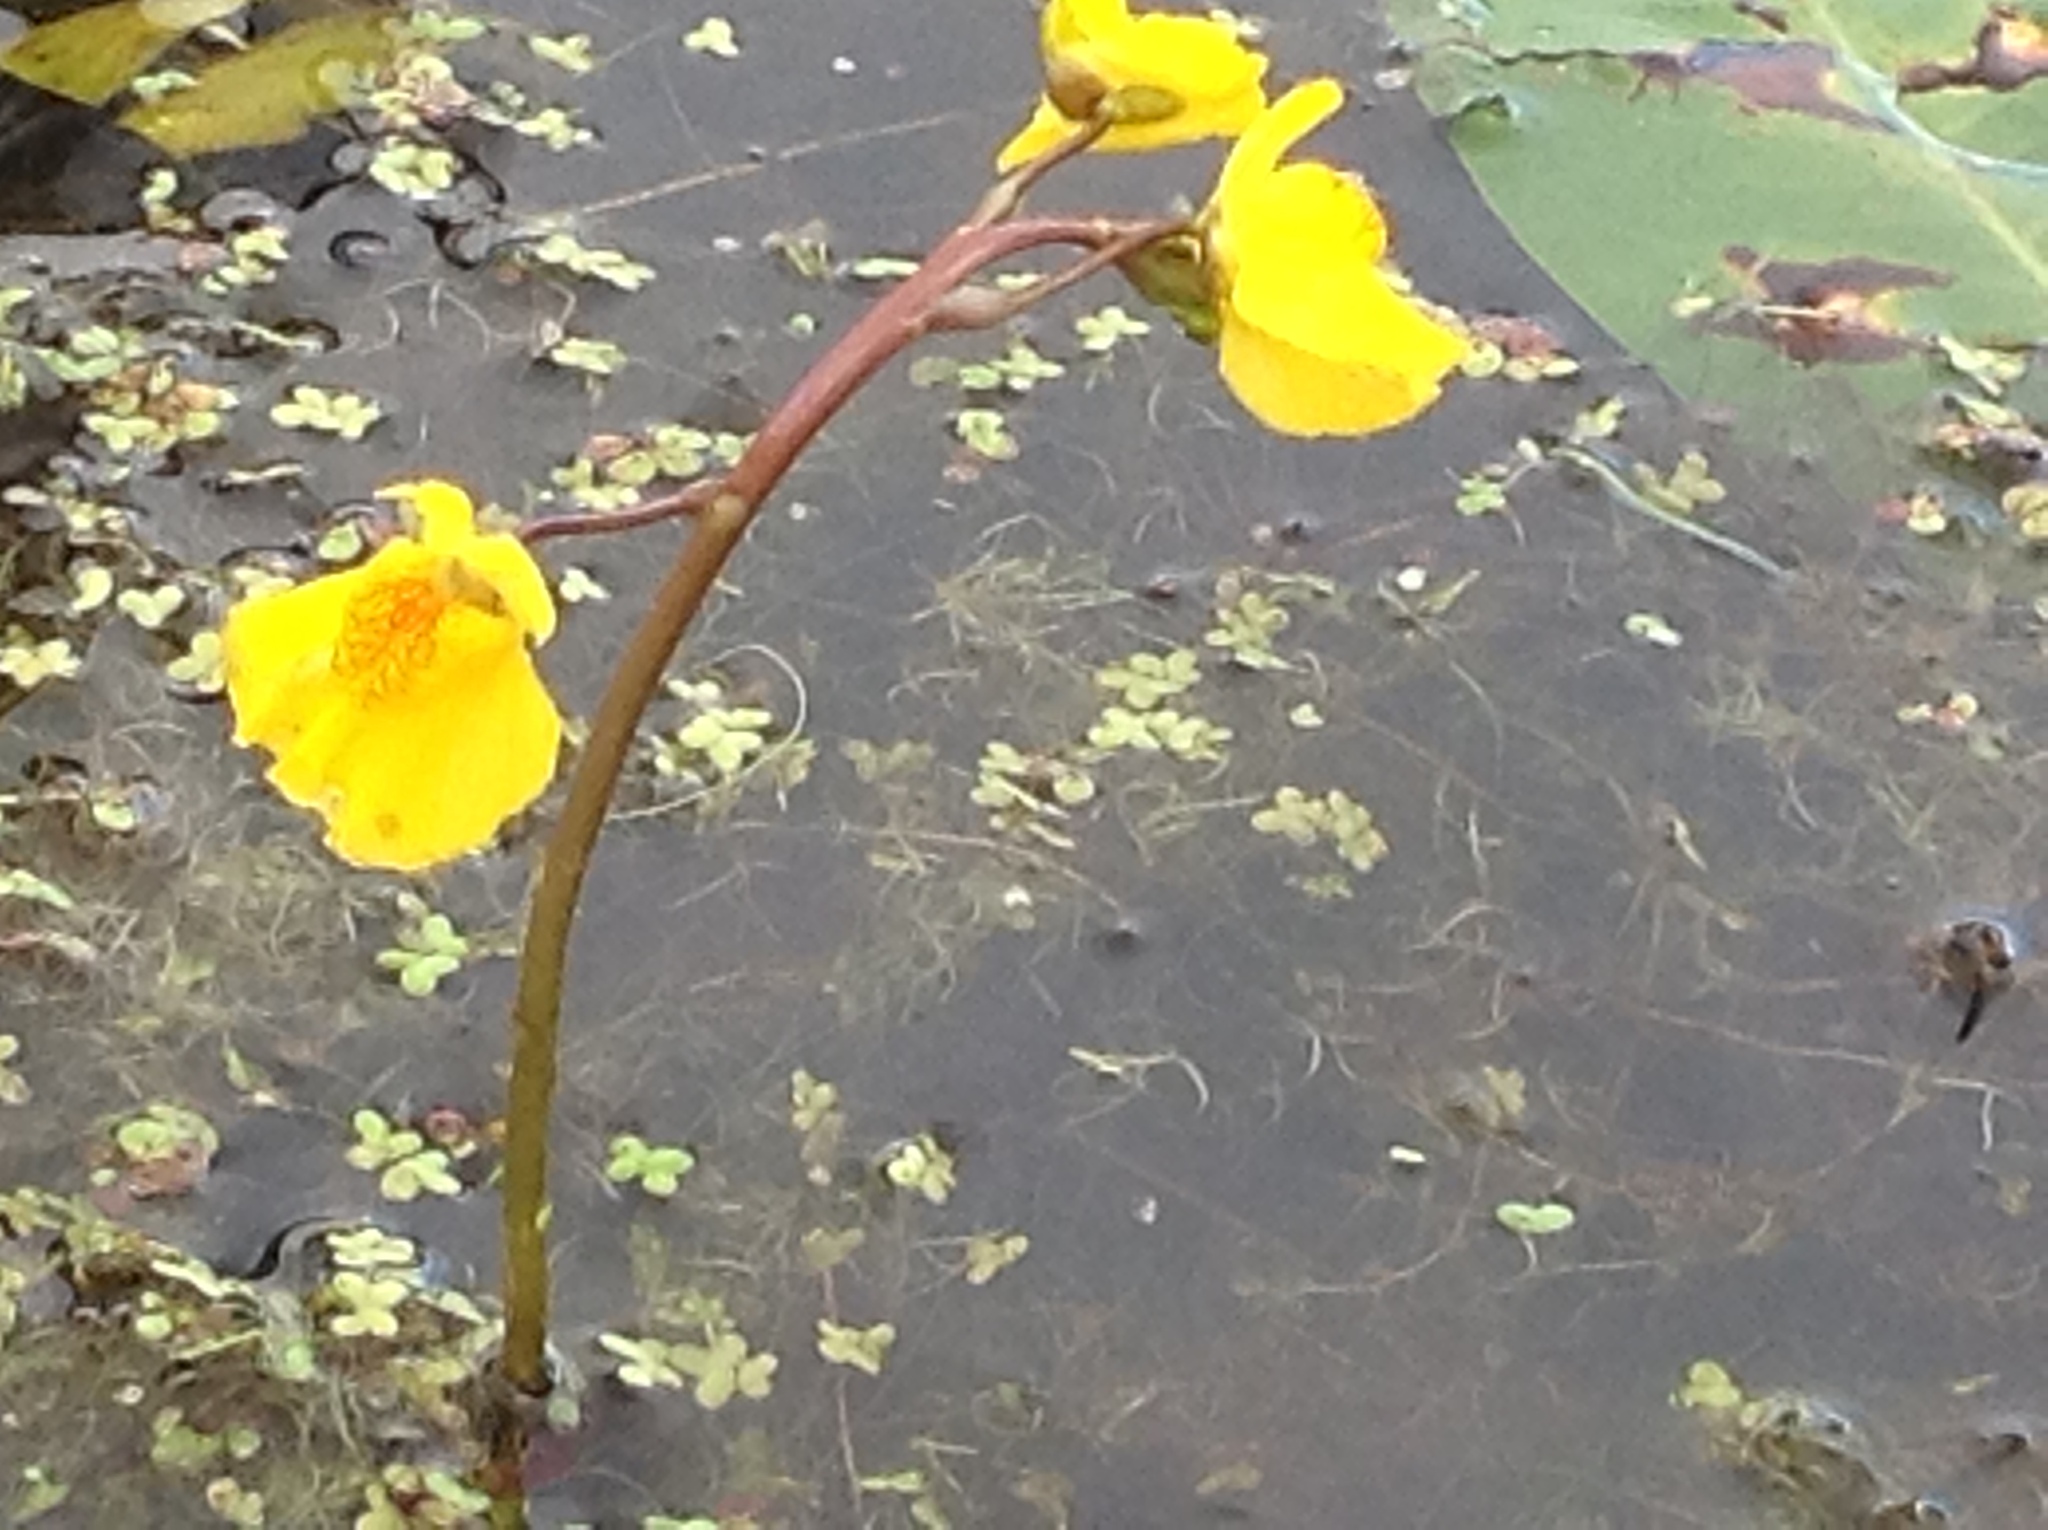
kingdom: Plantae
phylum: Tracheophyta
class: Magnoliopsida
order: Lamiales
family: Lentibulariaceae
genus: Utricularia
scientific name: Utricularia macrorhiza
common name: Common bladderwort
